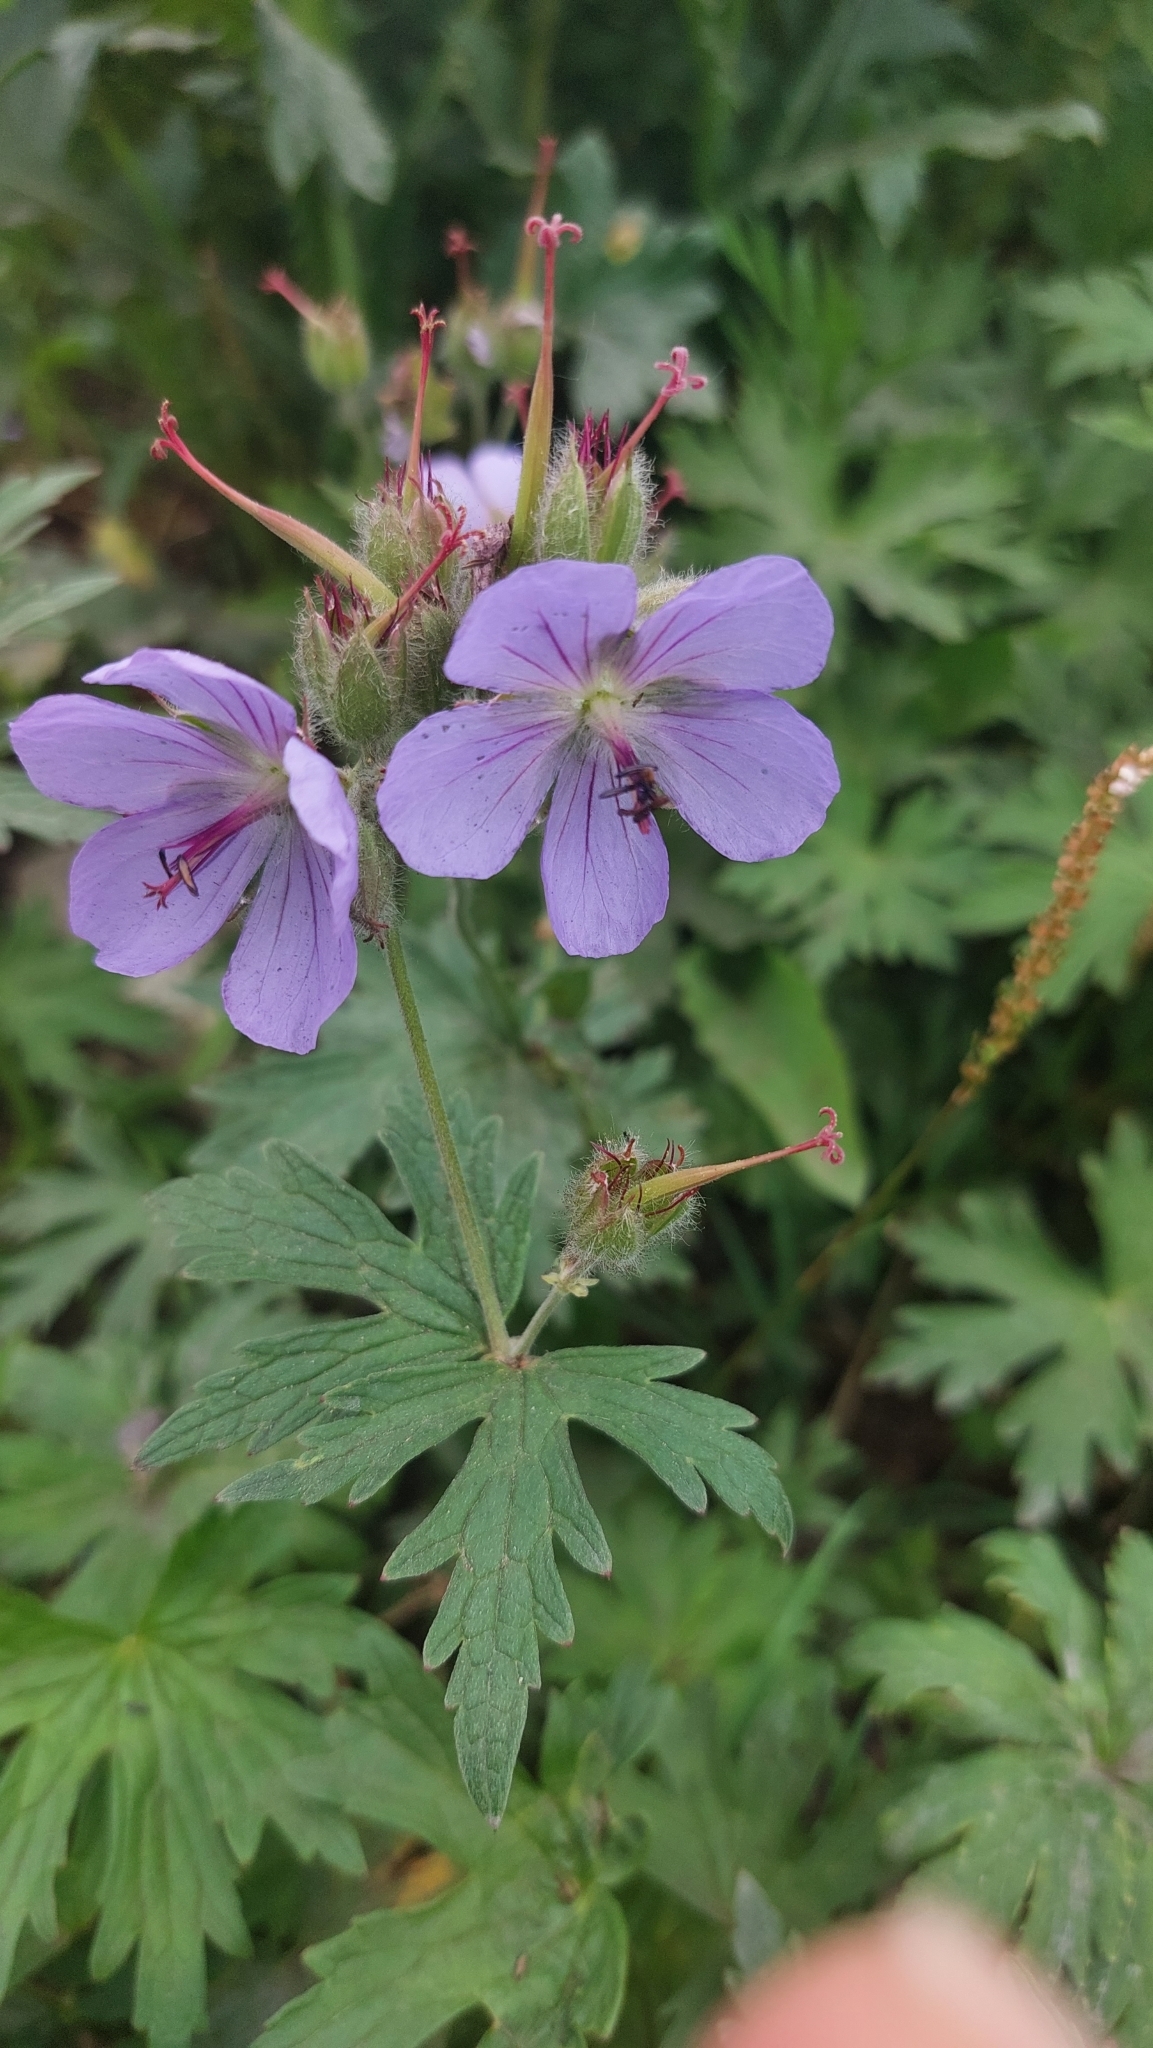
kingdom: Plantae
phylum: Tracheophyta
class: Magnoliopsida
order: Geraniales
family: Geraniaceae
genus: Geranium
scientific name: Geranium erianthum
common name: Northern crane's-bill
